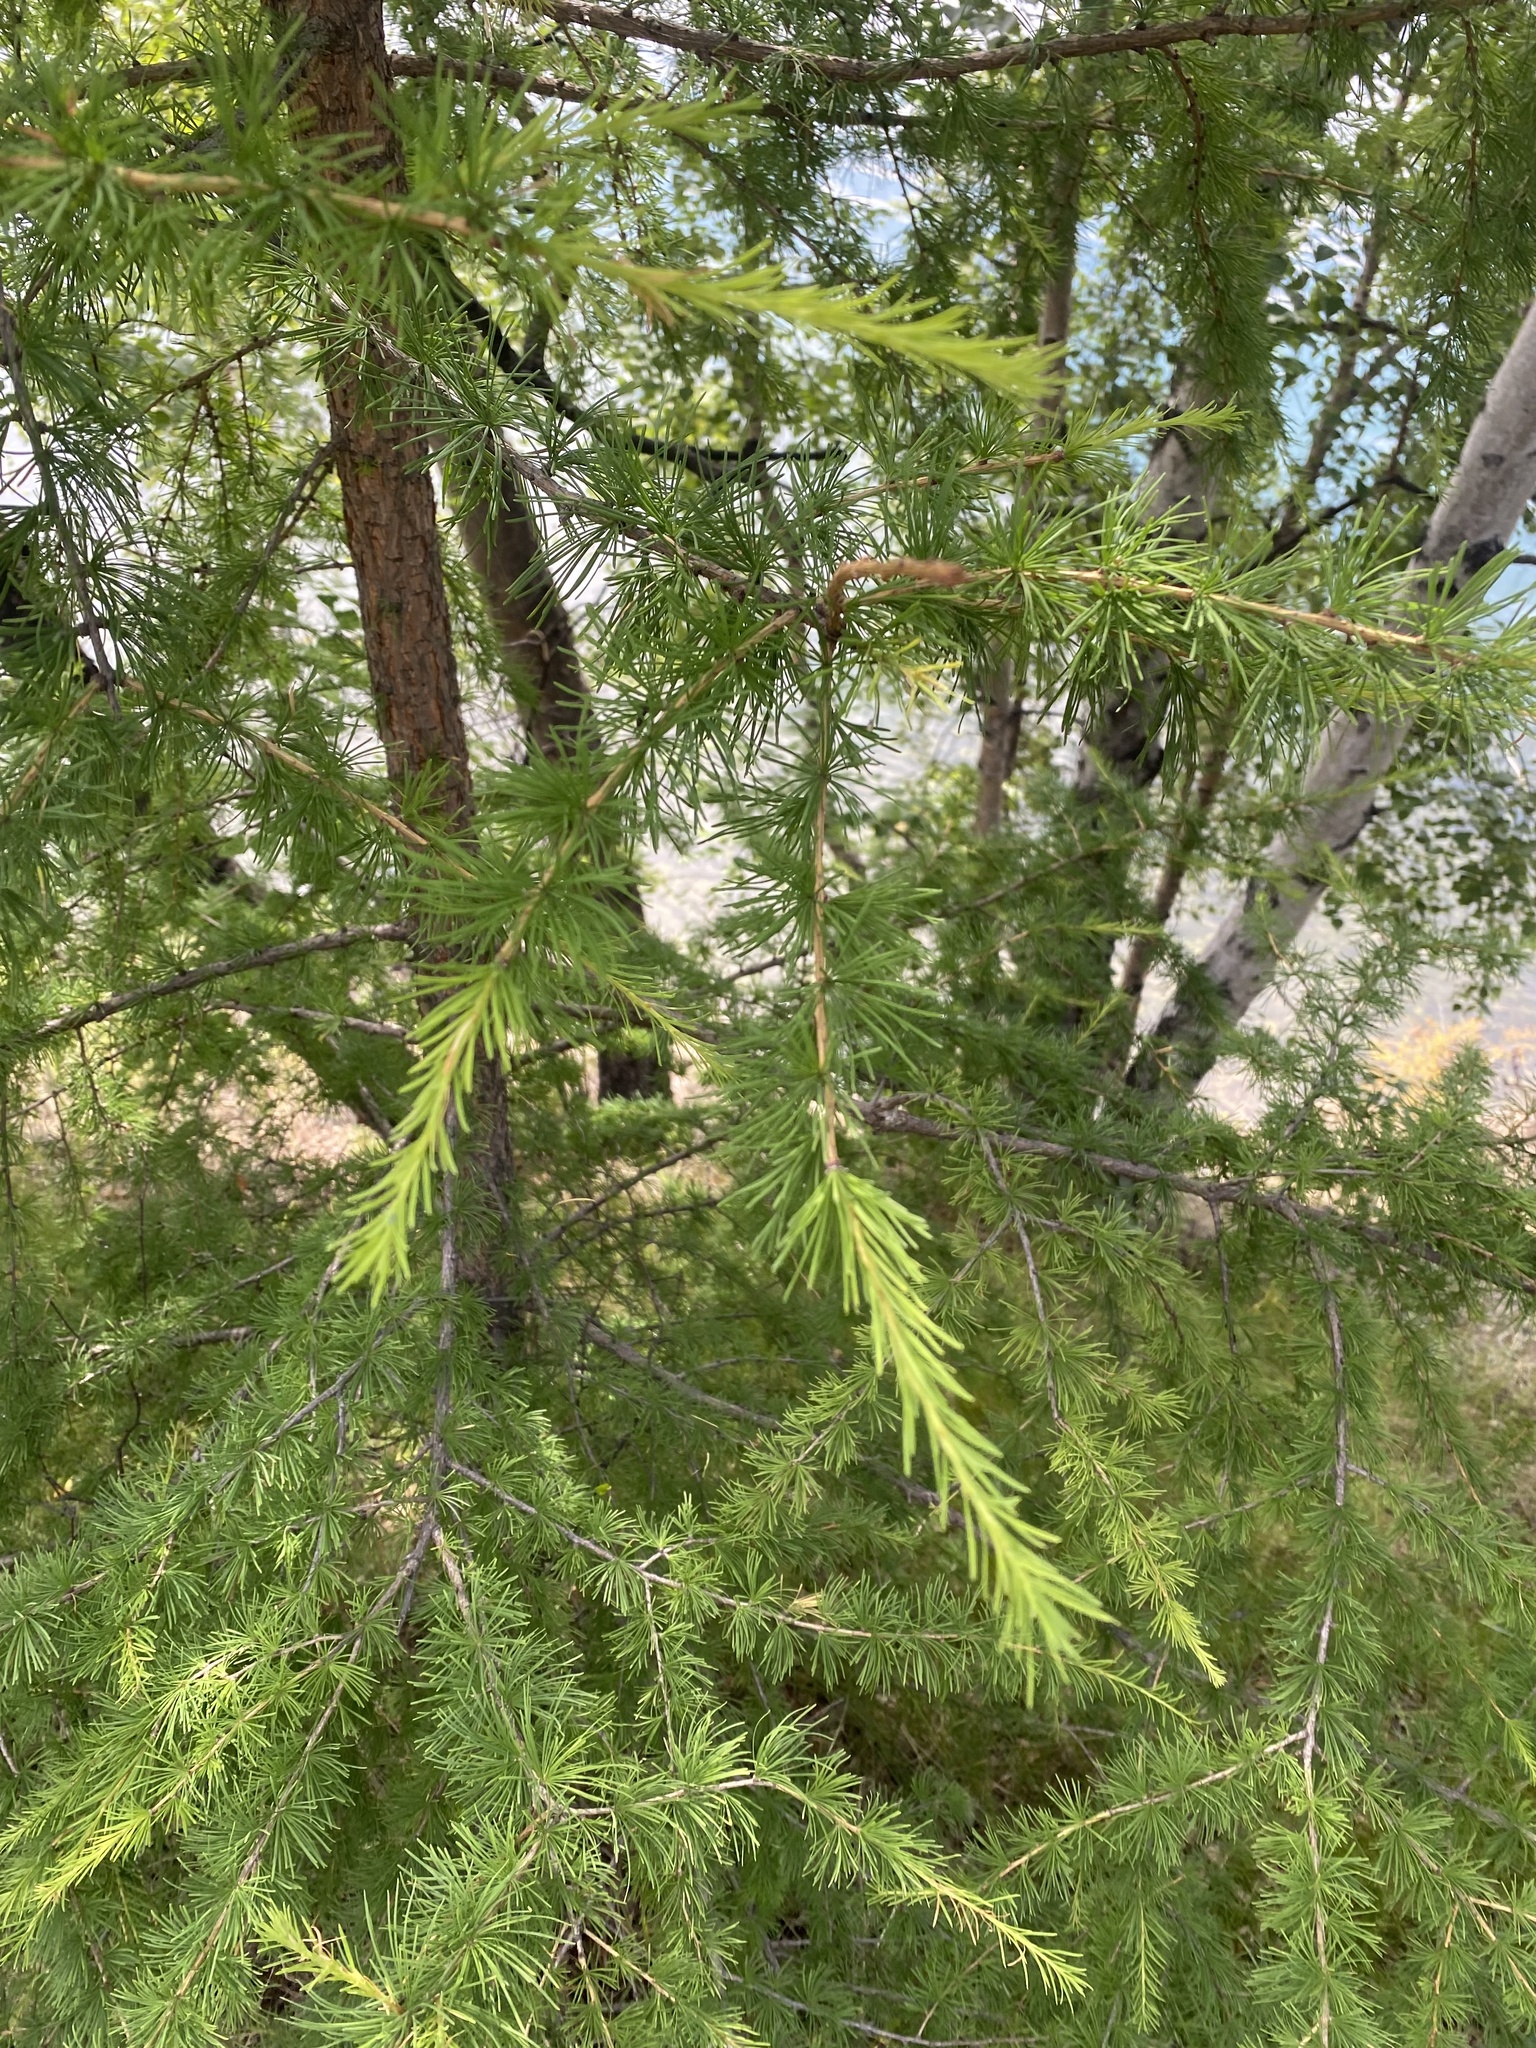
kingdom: Plantae
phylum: Tracheophyta
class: Pinopsida
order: Pinales
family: Pinaceae
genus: Larix
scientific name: Larix sibirica
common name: Siberian larch
